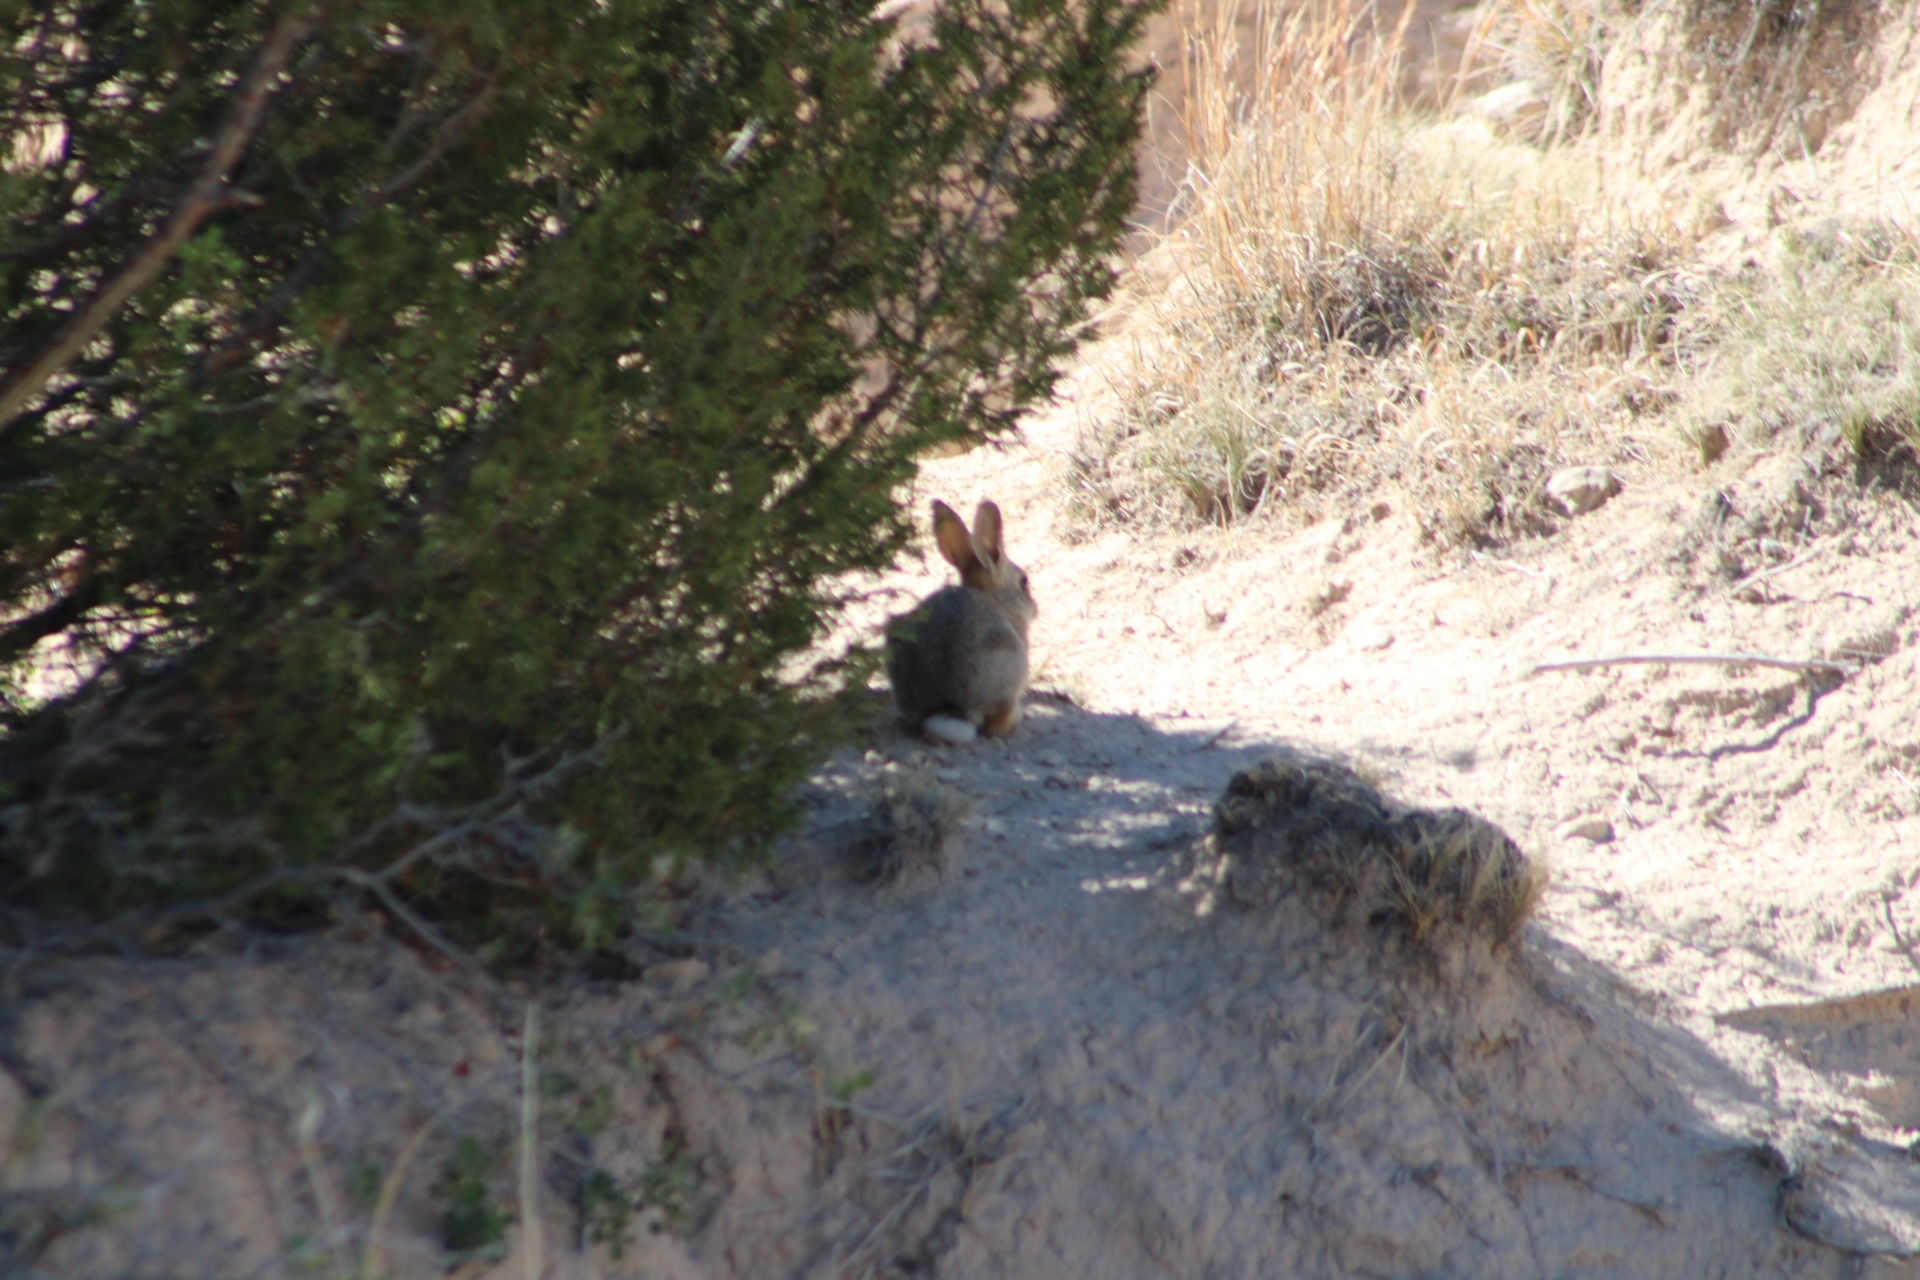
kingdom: Animalia
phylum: Chordata
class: Mammalia
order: Lagomorpha
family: Leporidae
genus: Sylvilagus
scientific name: Sylvilagus audubonii
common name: Desert cottontail
